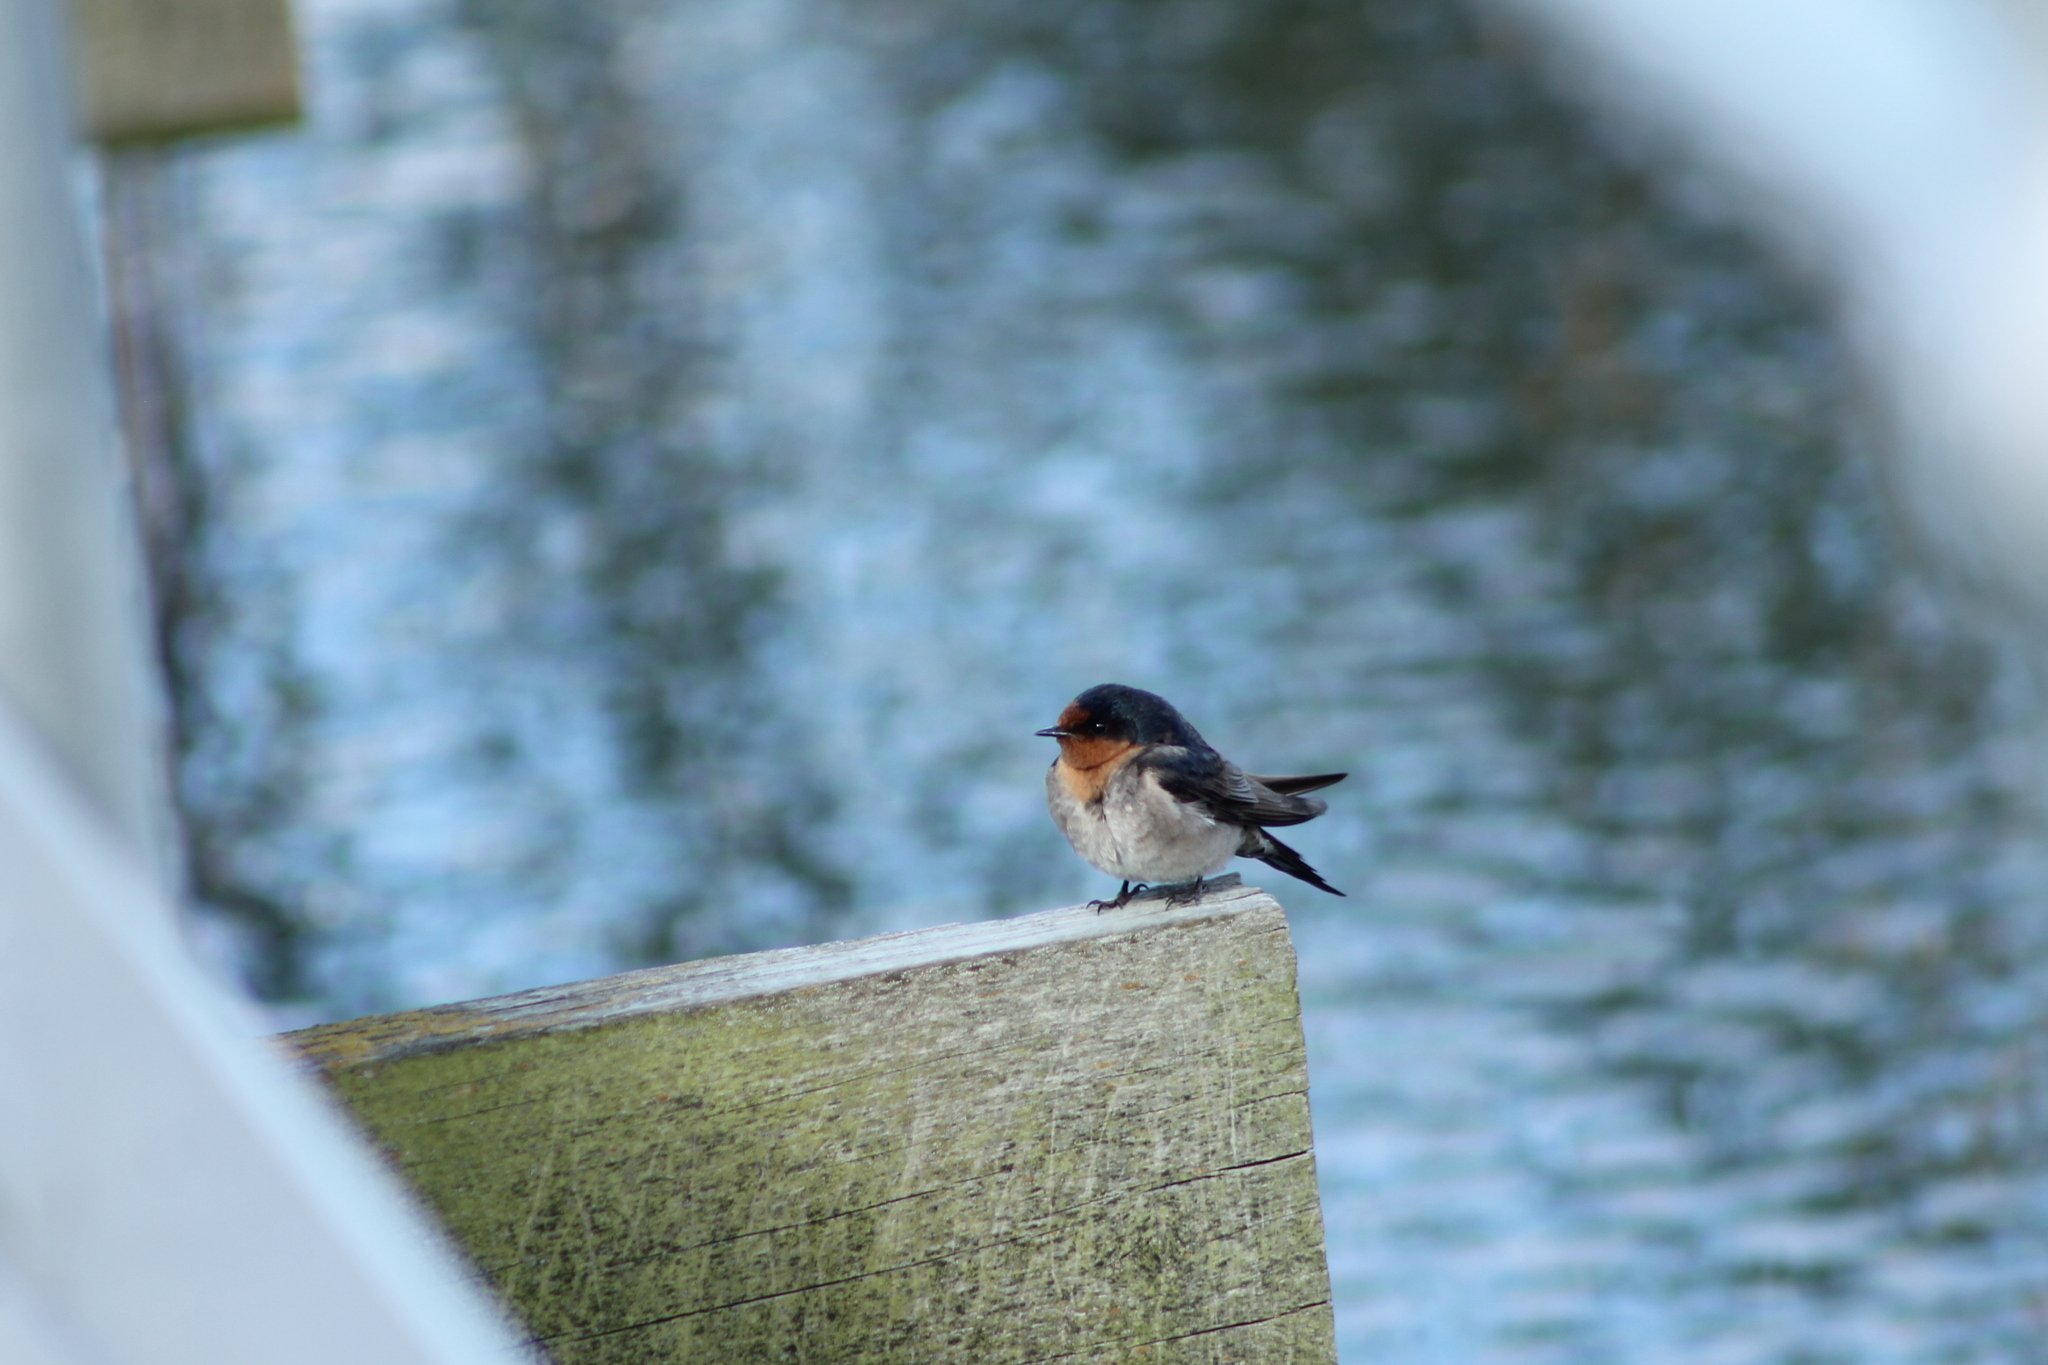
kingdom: Animalia
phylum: Chordata
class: Aves
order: Passeriformes
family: Hirundinidae
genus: Hirundo
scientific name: Hirundo neoxena
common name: Welcome swallow
